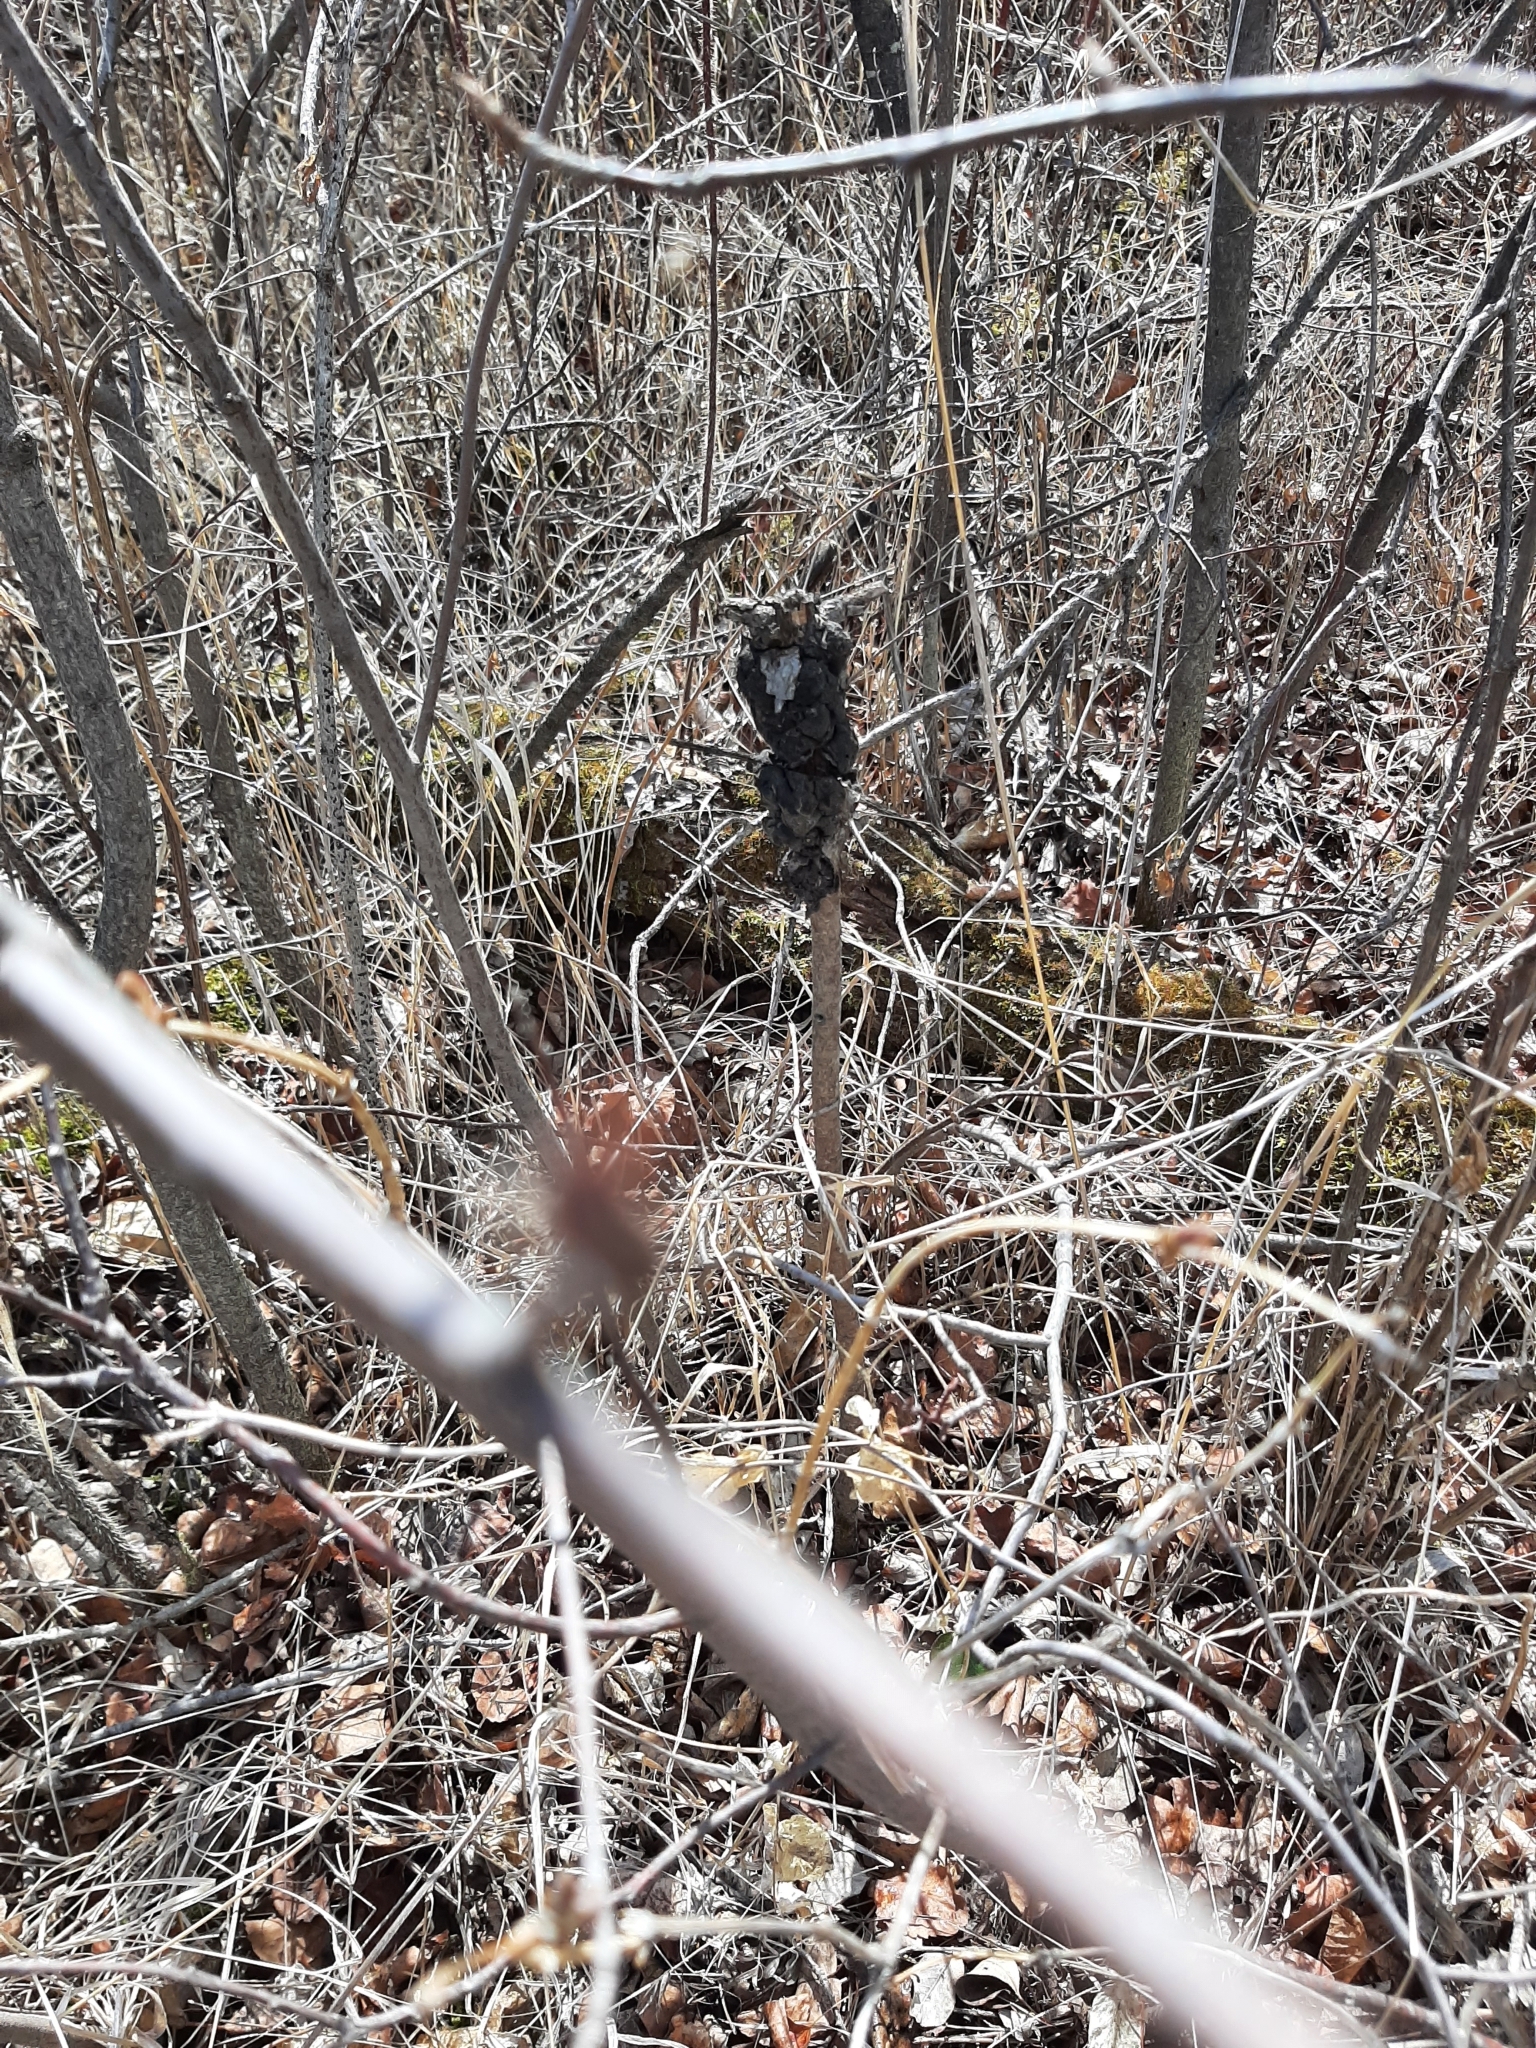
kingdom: Fungi
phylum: Ascomycota
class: Dothideomycetes
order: Venturiales
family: Venturiaceae
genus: Apiosporina
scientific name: Apiosporina morbosa
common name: Black knot
